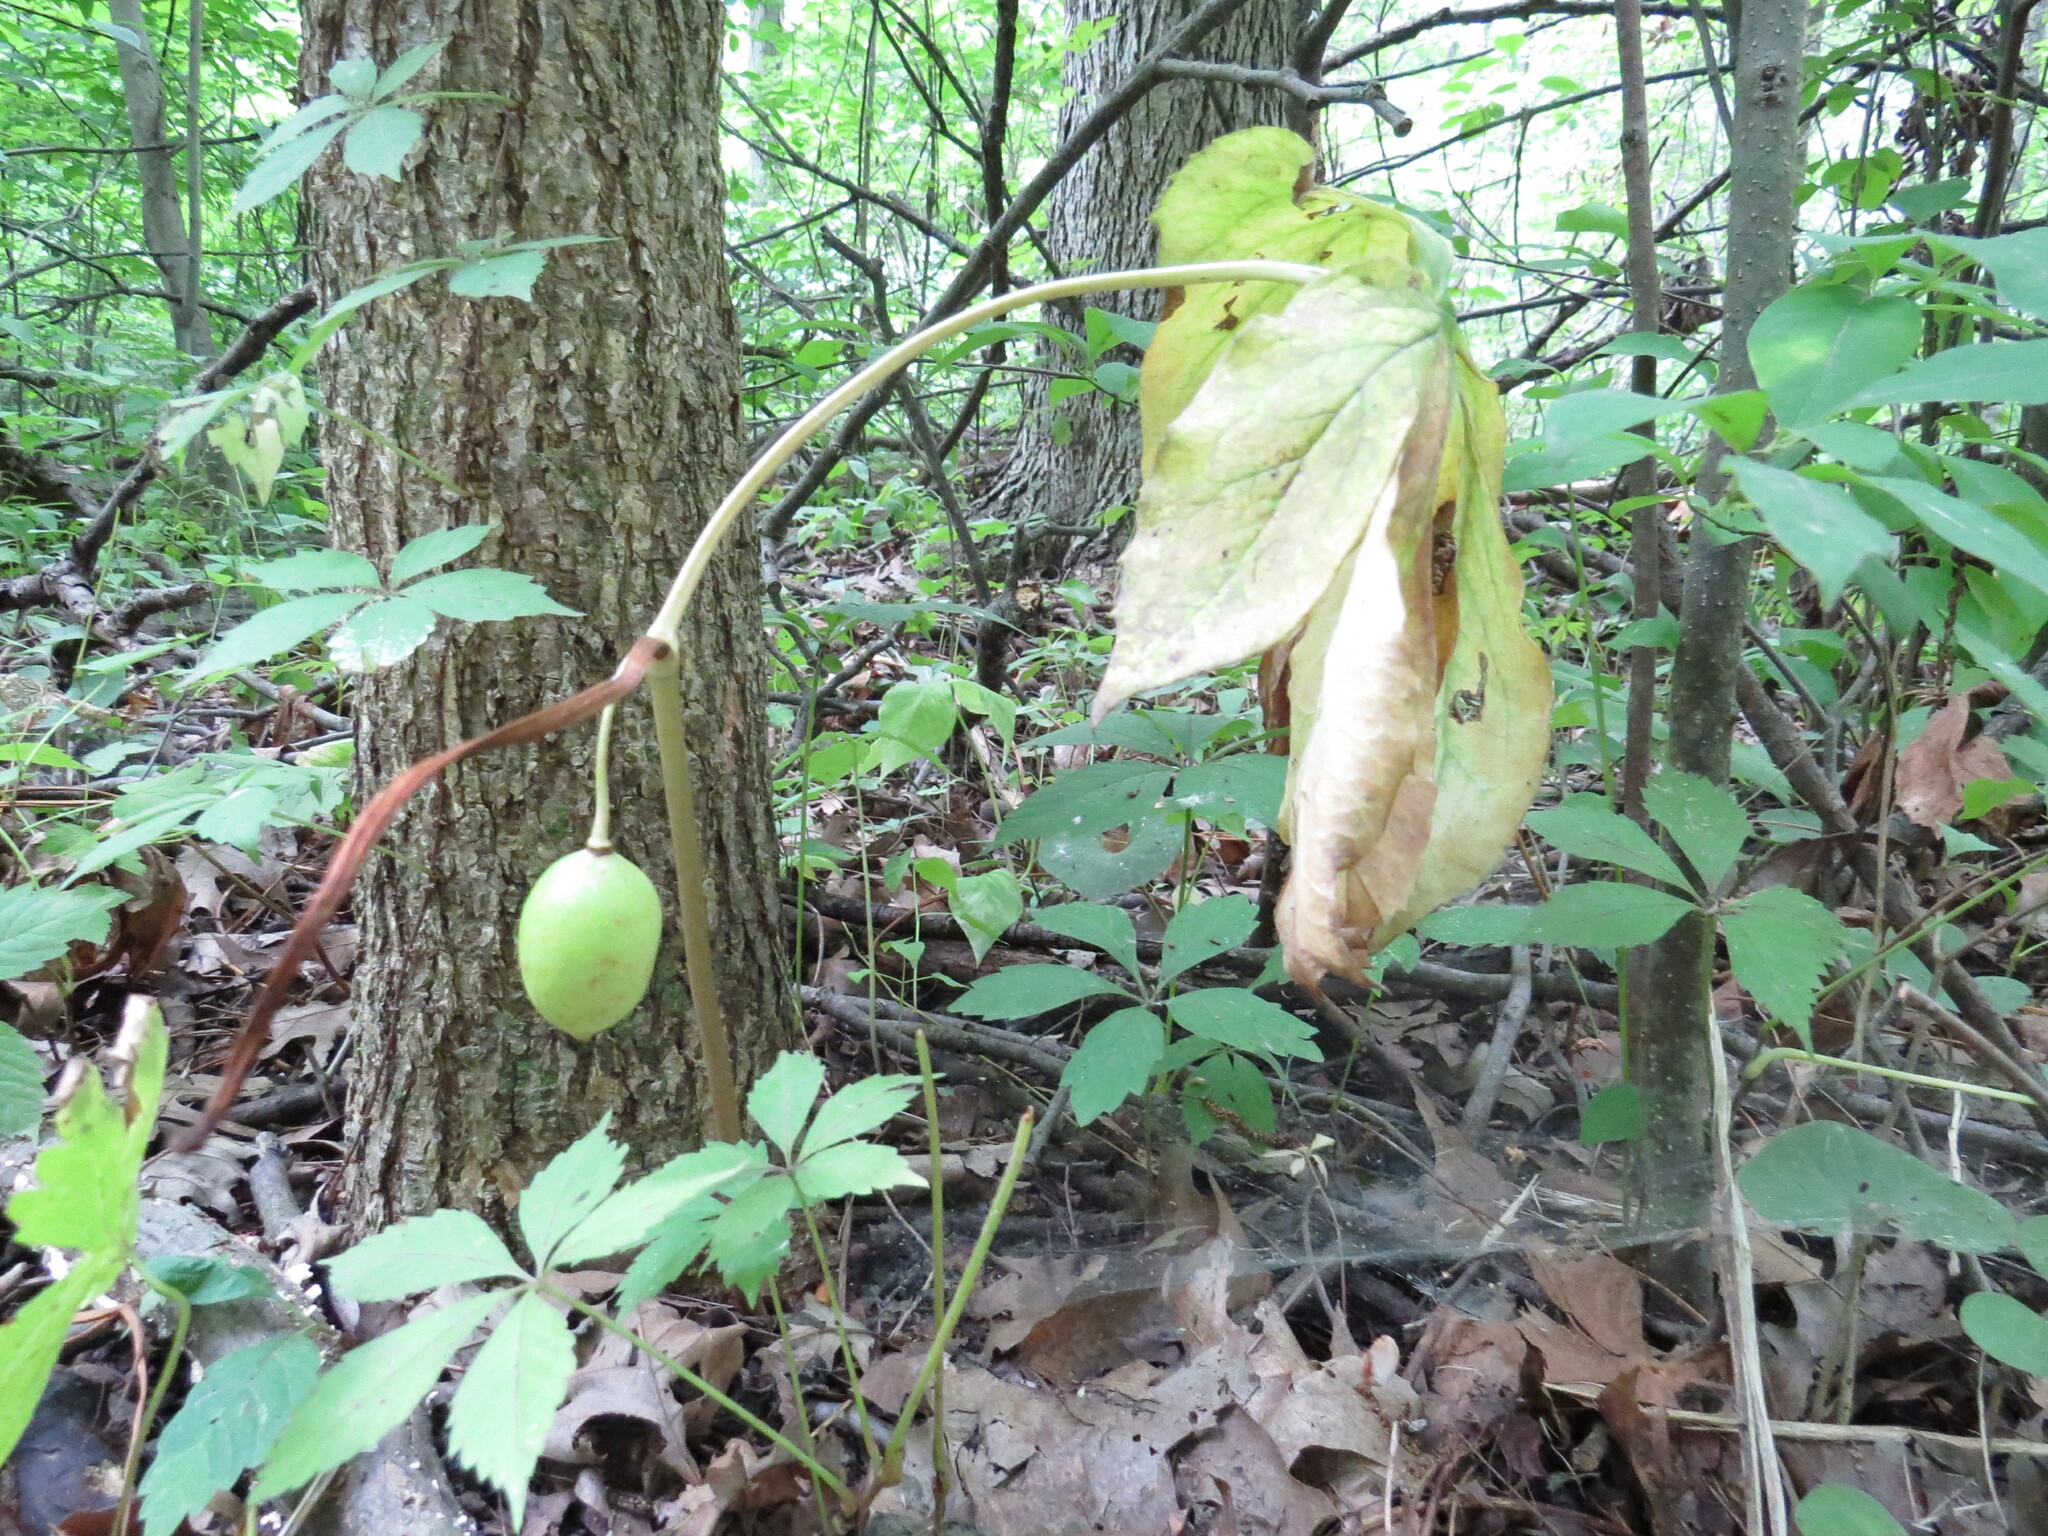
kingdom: Plantae
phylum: Tracheophyta
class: Magnoliopsida
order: Ranunculales
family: Berberidaceae
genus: Podophyllum
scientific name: Podophyllum peltatum
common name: Wild mandrake
